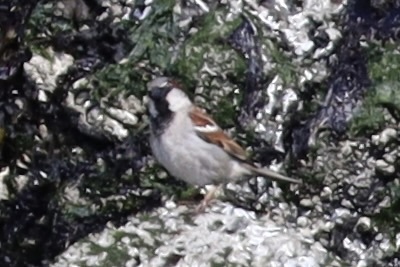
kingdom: Animalia
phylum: Chordata
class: Aves
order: Passeriformes
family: Passeridae
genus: Passer
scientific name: Passer domesticus
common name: House sparrow
